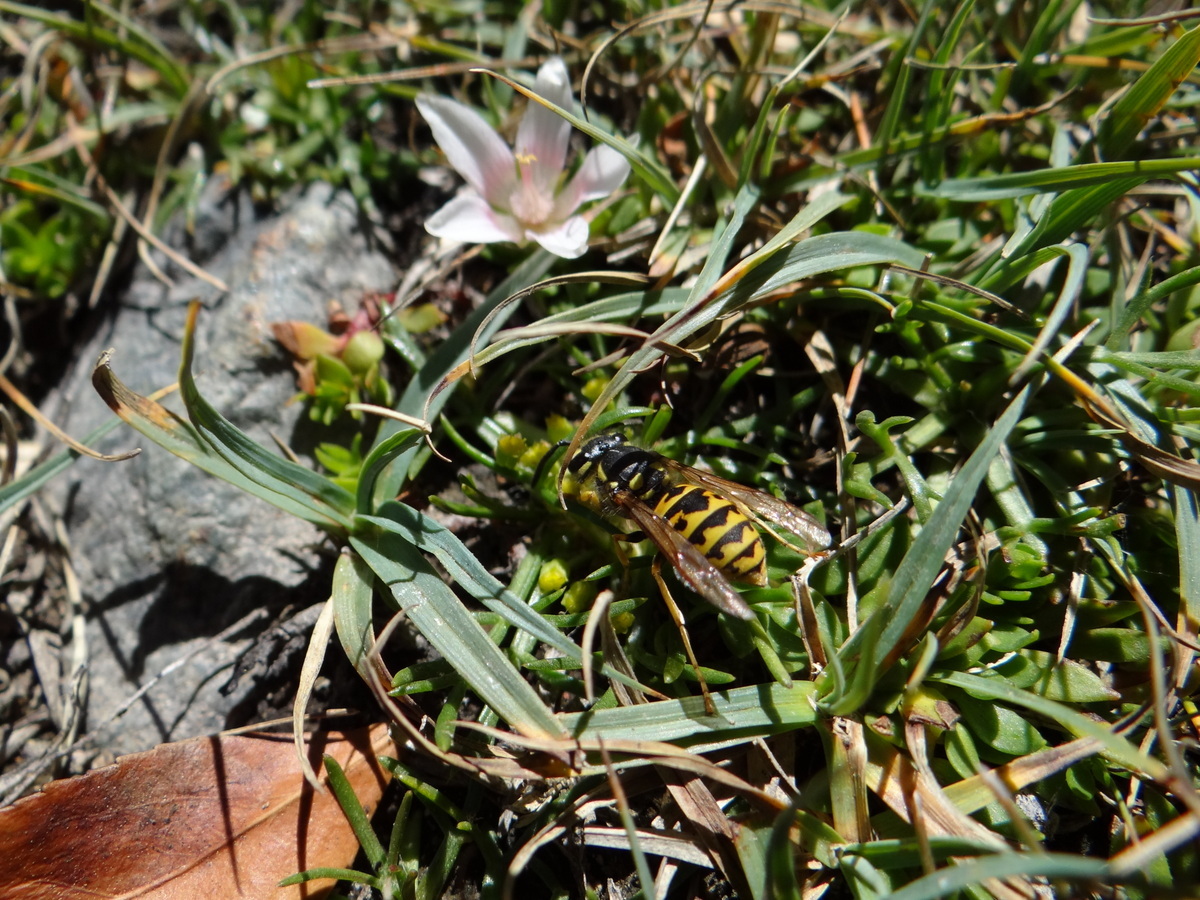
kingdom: Animalia
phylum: Arthropoda
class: Insecta
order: Hymenoptera
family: Vespidae
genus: Vespula
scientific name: Vespula germanica
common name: German wasp
